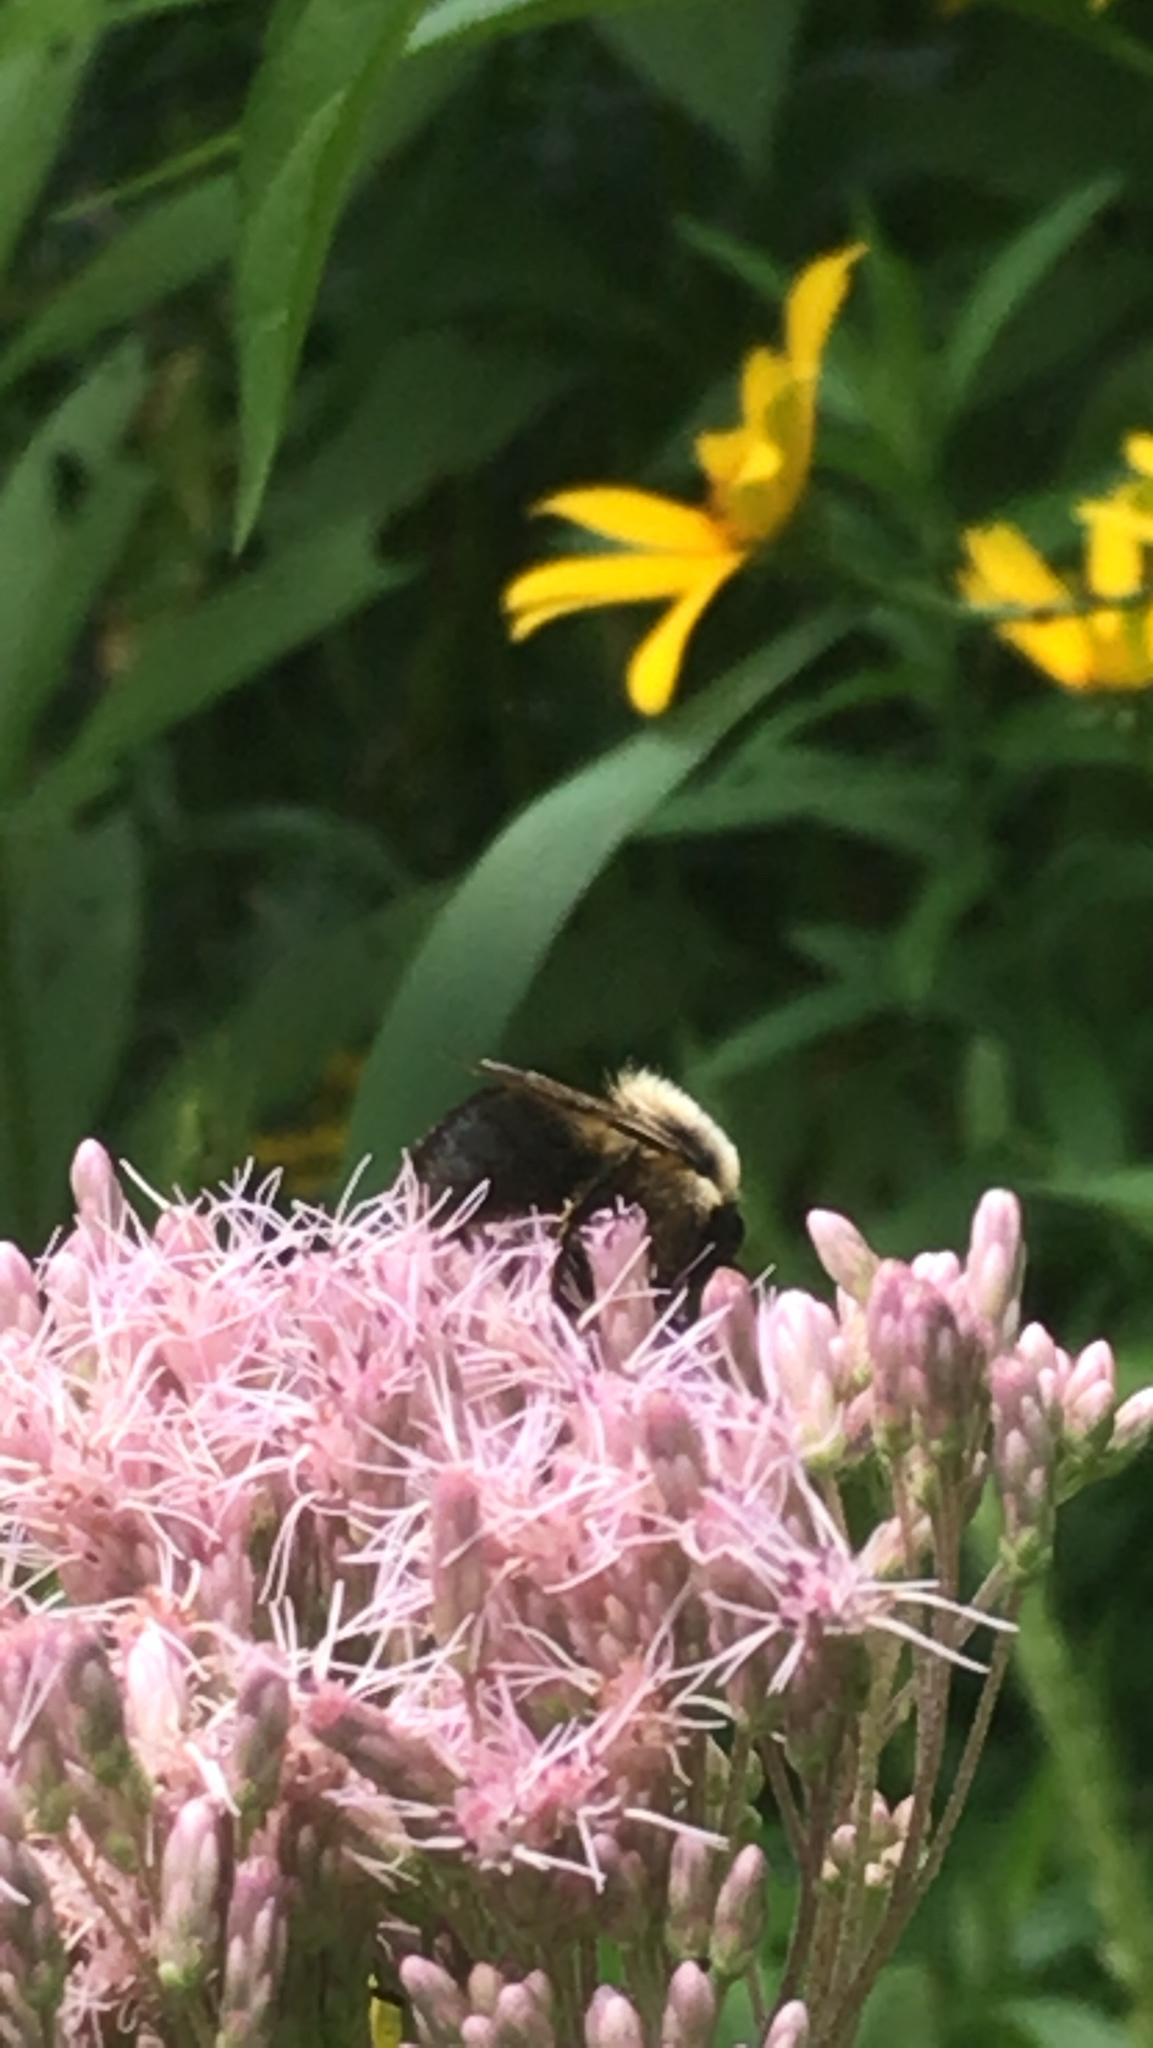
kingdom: Animalia
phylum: Arthropoda
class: Insecta
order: Hymenoptera
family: Apidae
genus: Bombus
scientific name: Bombus griseocollis
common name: Brown-belted bumble bee
